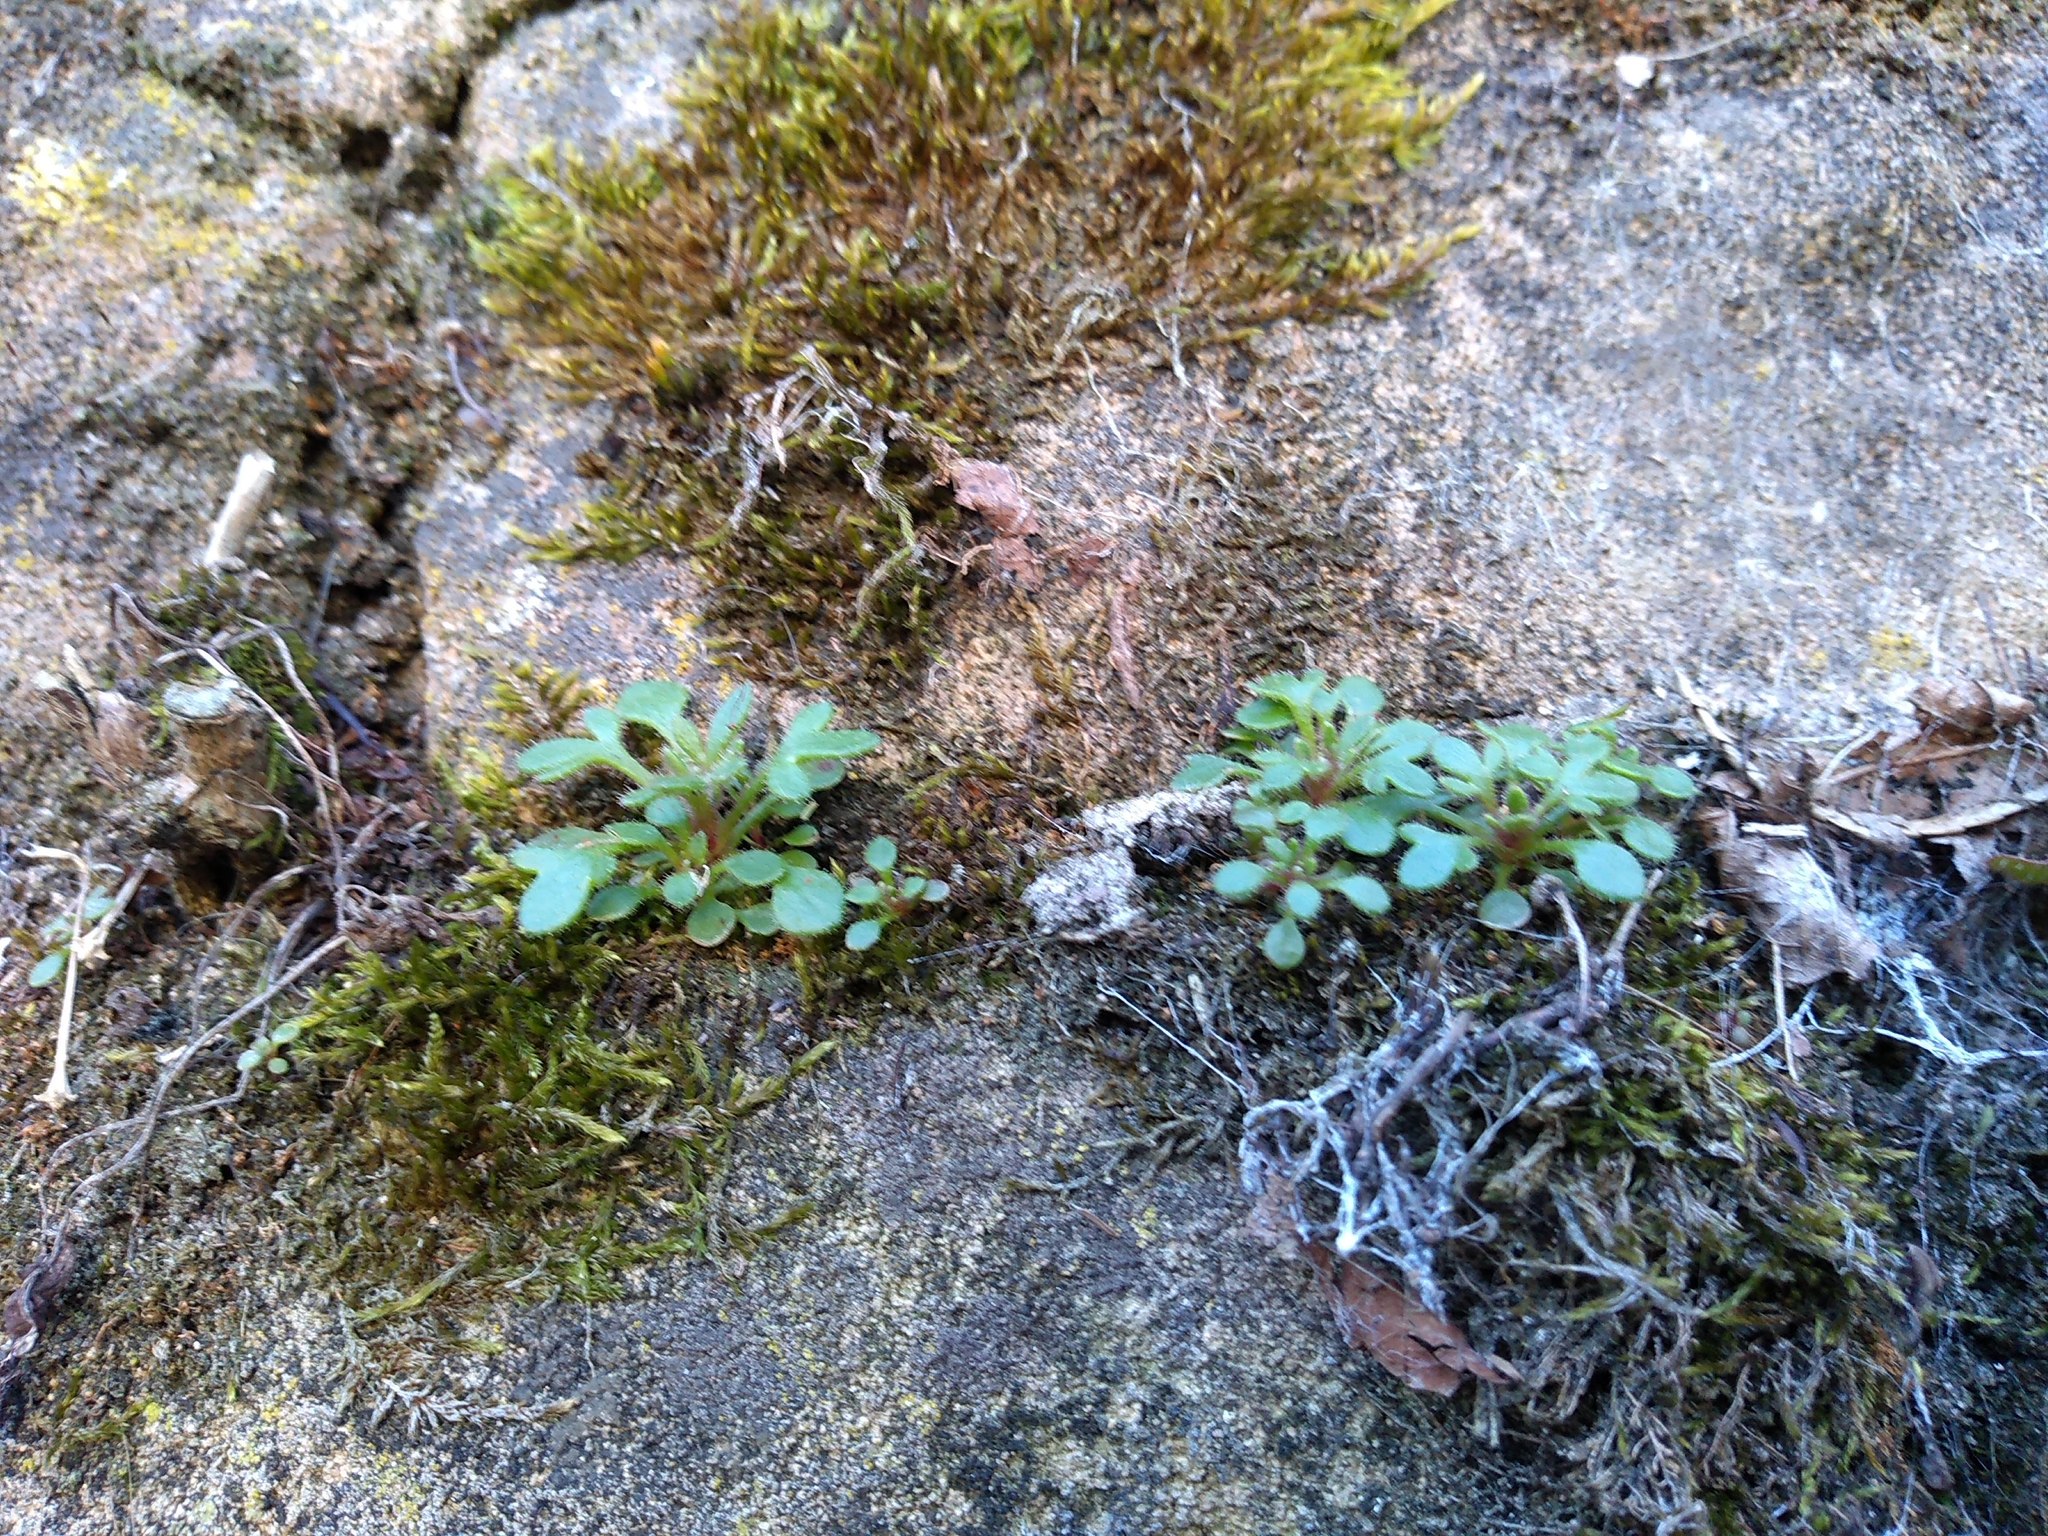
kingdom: Plantae
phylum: Tracheophyta
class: Magnoliopsida
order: Saxifragales
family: Saxifragaceae
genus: Saxifraga
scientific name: Saxifraga tridactylites
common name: Rue-leaved saxifrage
